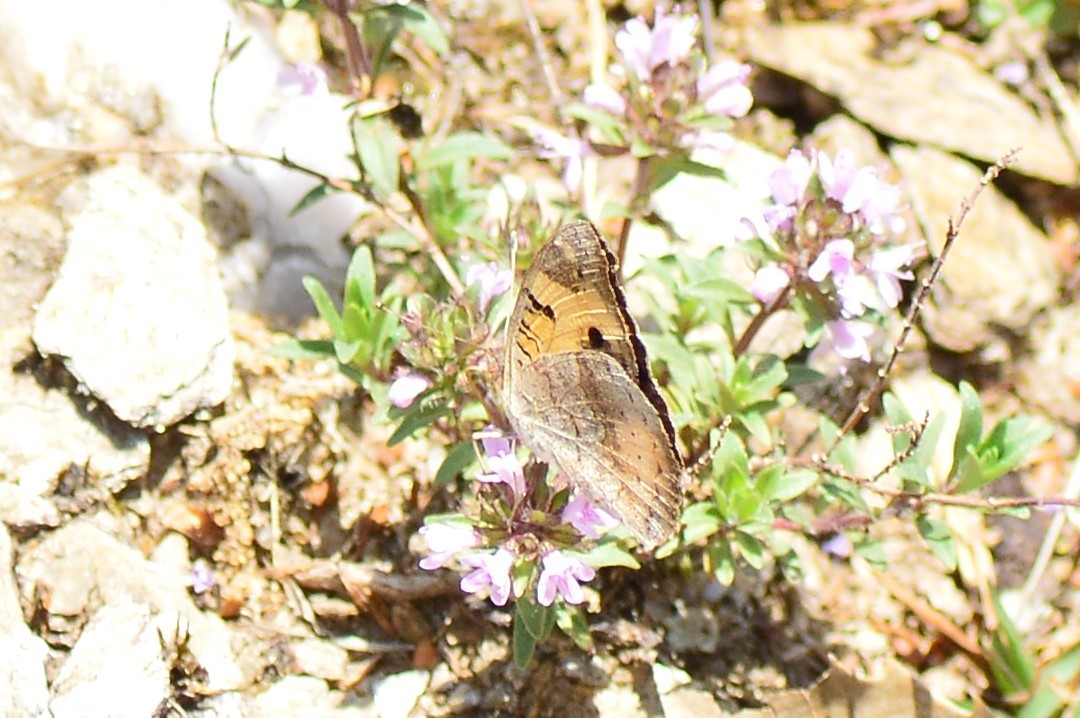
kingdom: Animalia
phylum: Arthropoda
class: Insecta
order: Lepidoptera
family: Nymphalidae
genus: Junonia
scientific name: Junonia hierta
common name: Yellow pansy
